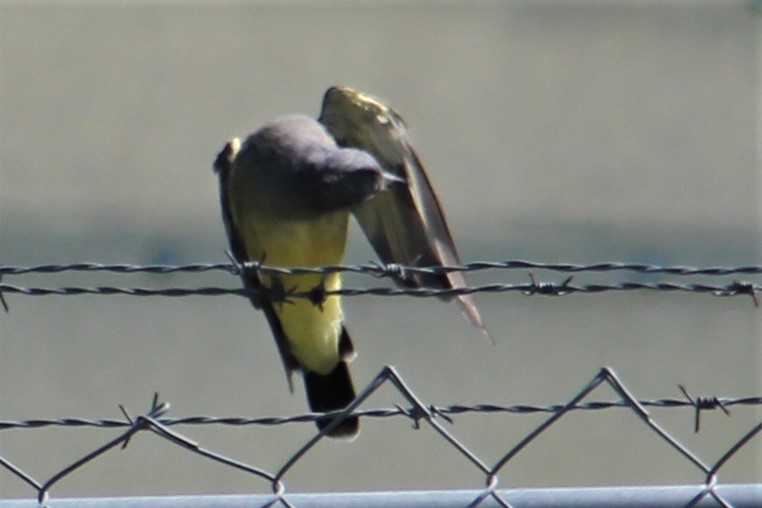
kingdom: Animalia
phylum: Chordata
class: Aves
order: Passeriformes
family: Tyrannidae
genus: Tyrannus
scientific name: Tyrannus vociferans
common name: Cassin's kingbird
